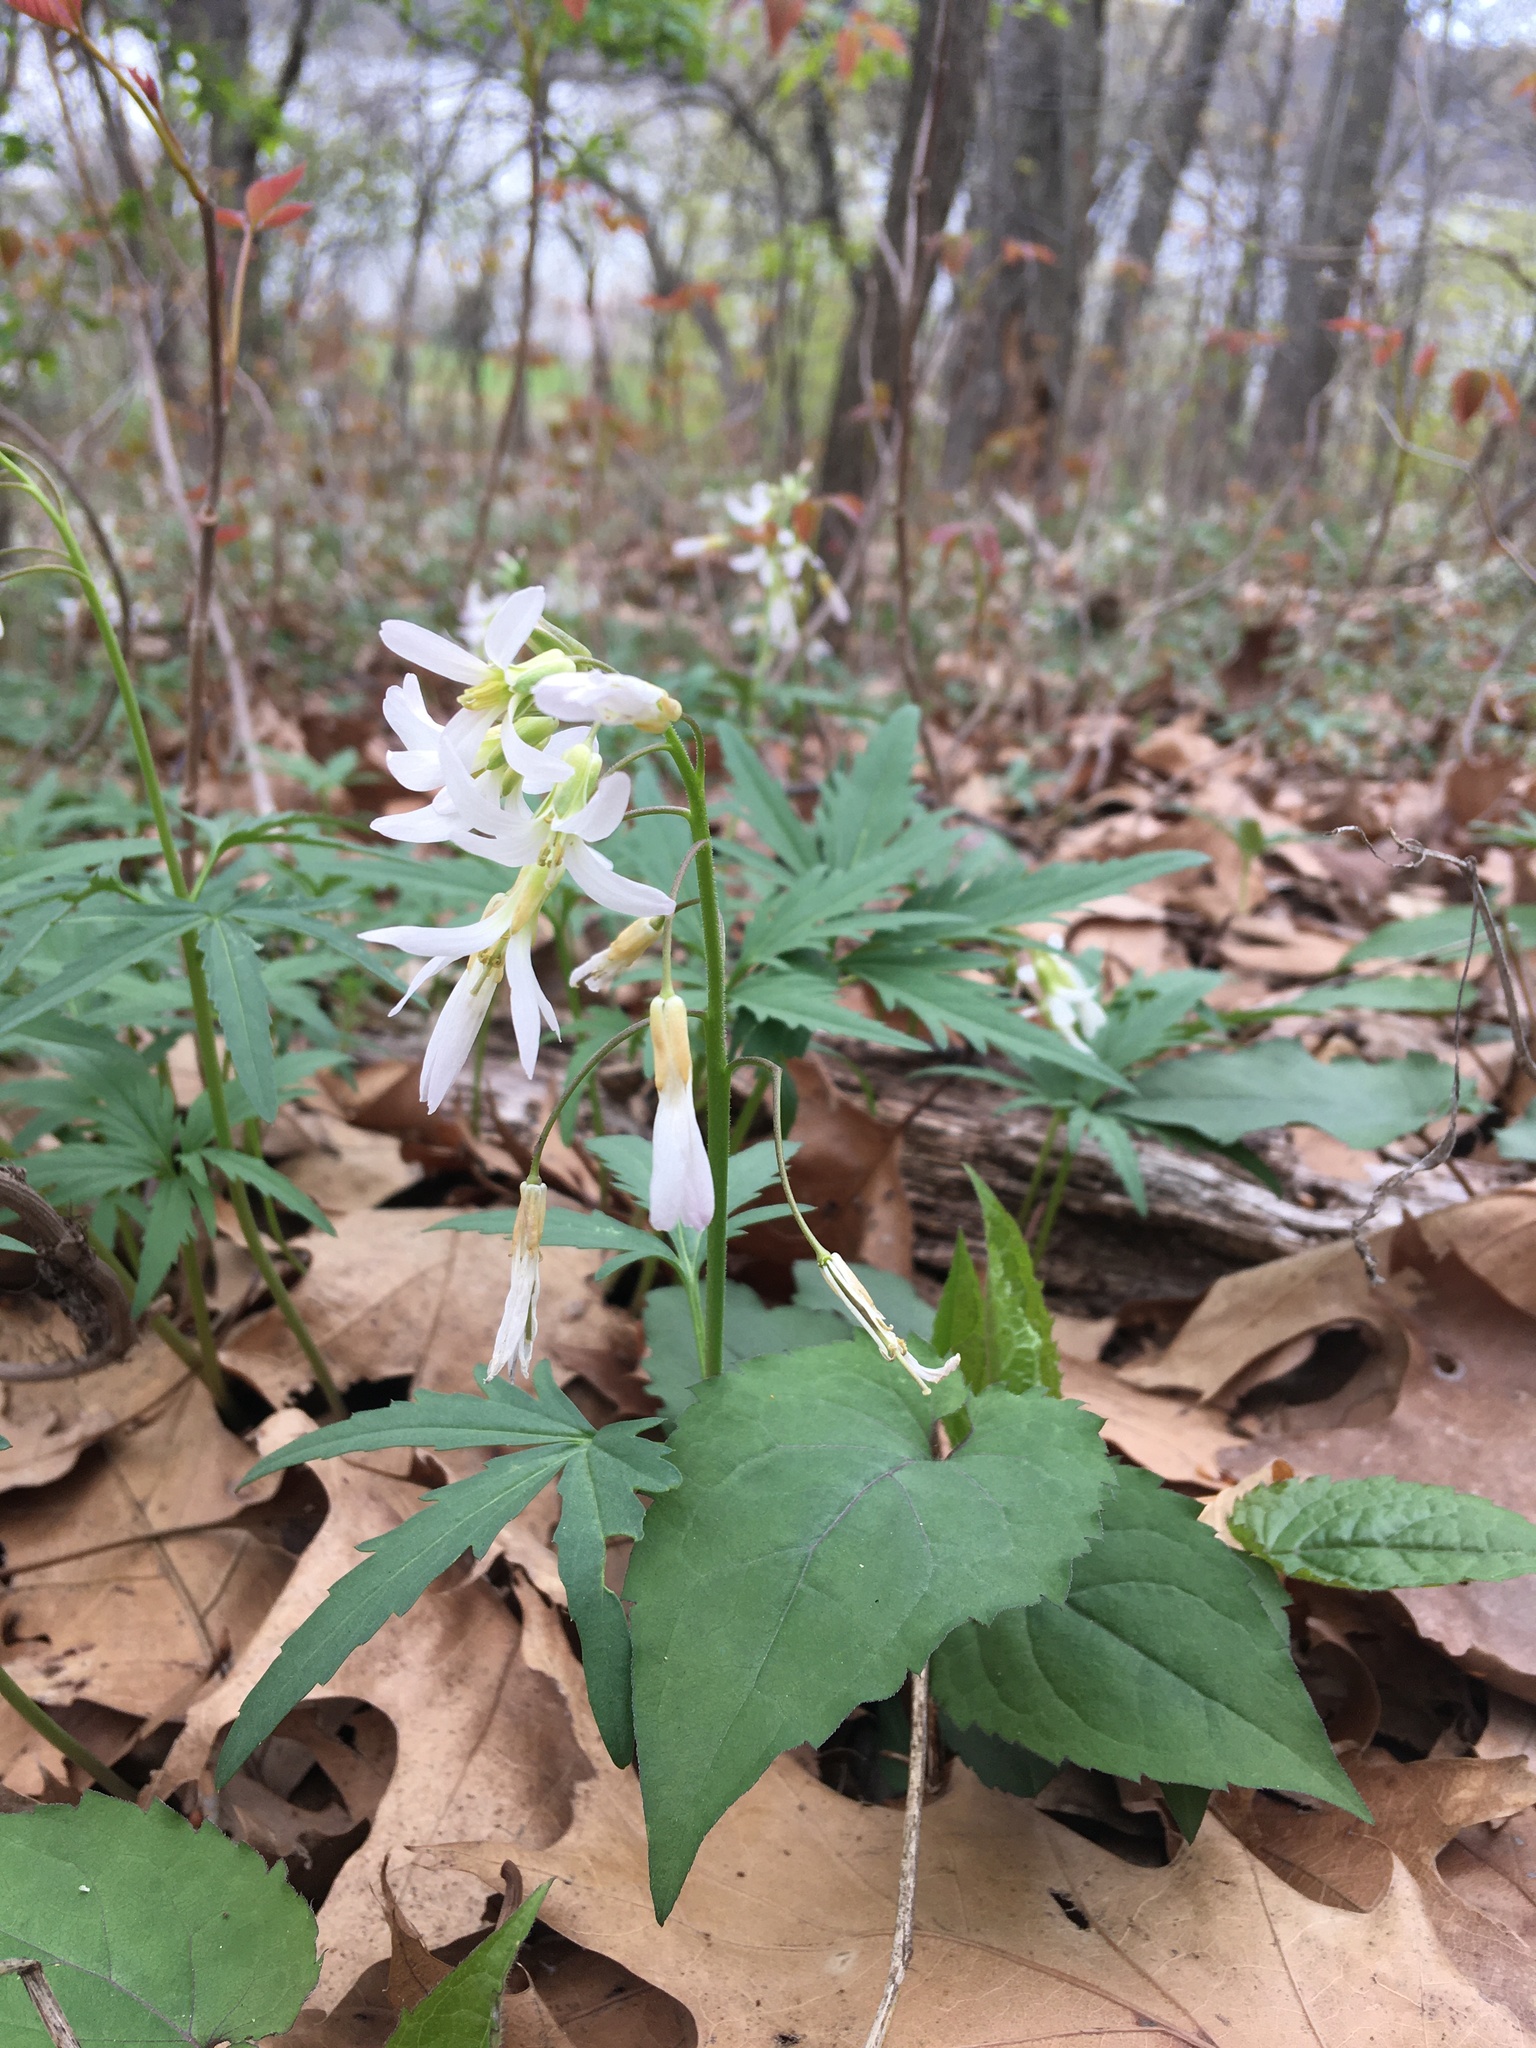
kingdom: Plantae
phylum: Tracheophyta
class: Magnoliopsida
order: Brassicales
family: Brassicaceae
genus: Cardamine
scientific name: Cardamine concatenata
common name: Cut-leaf toothcup
